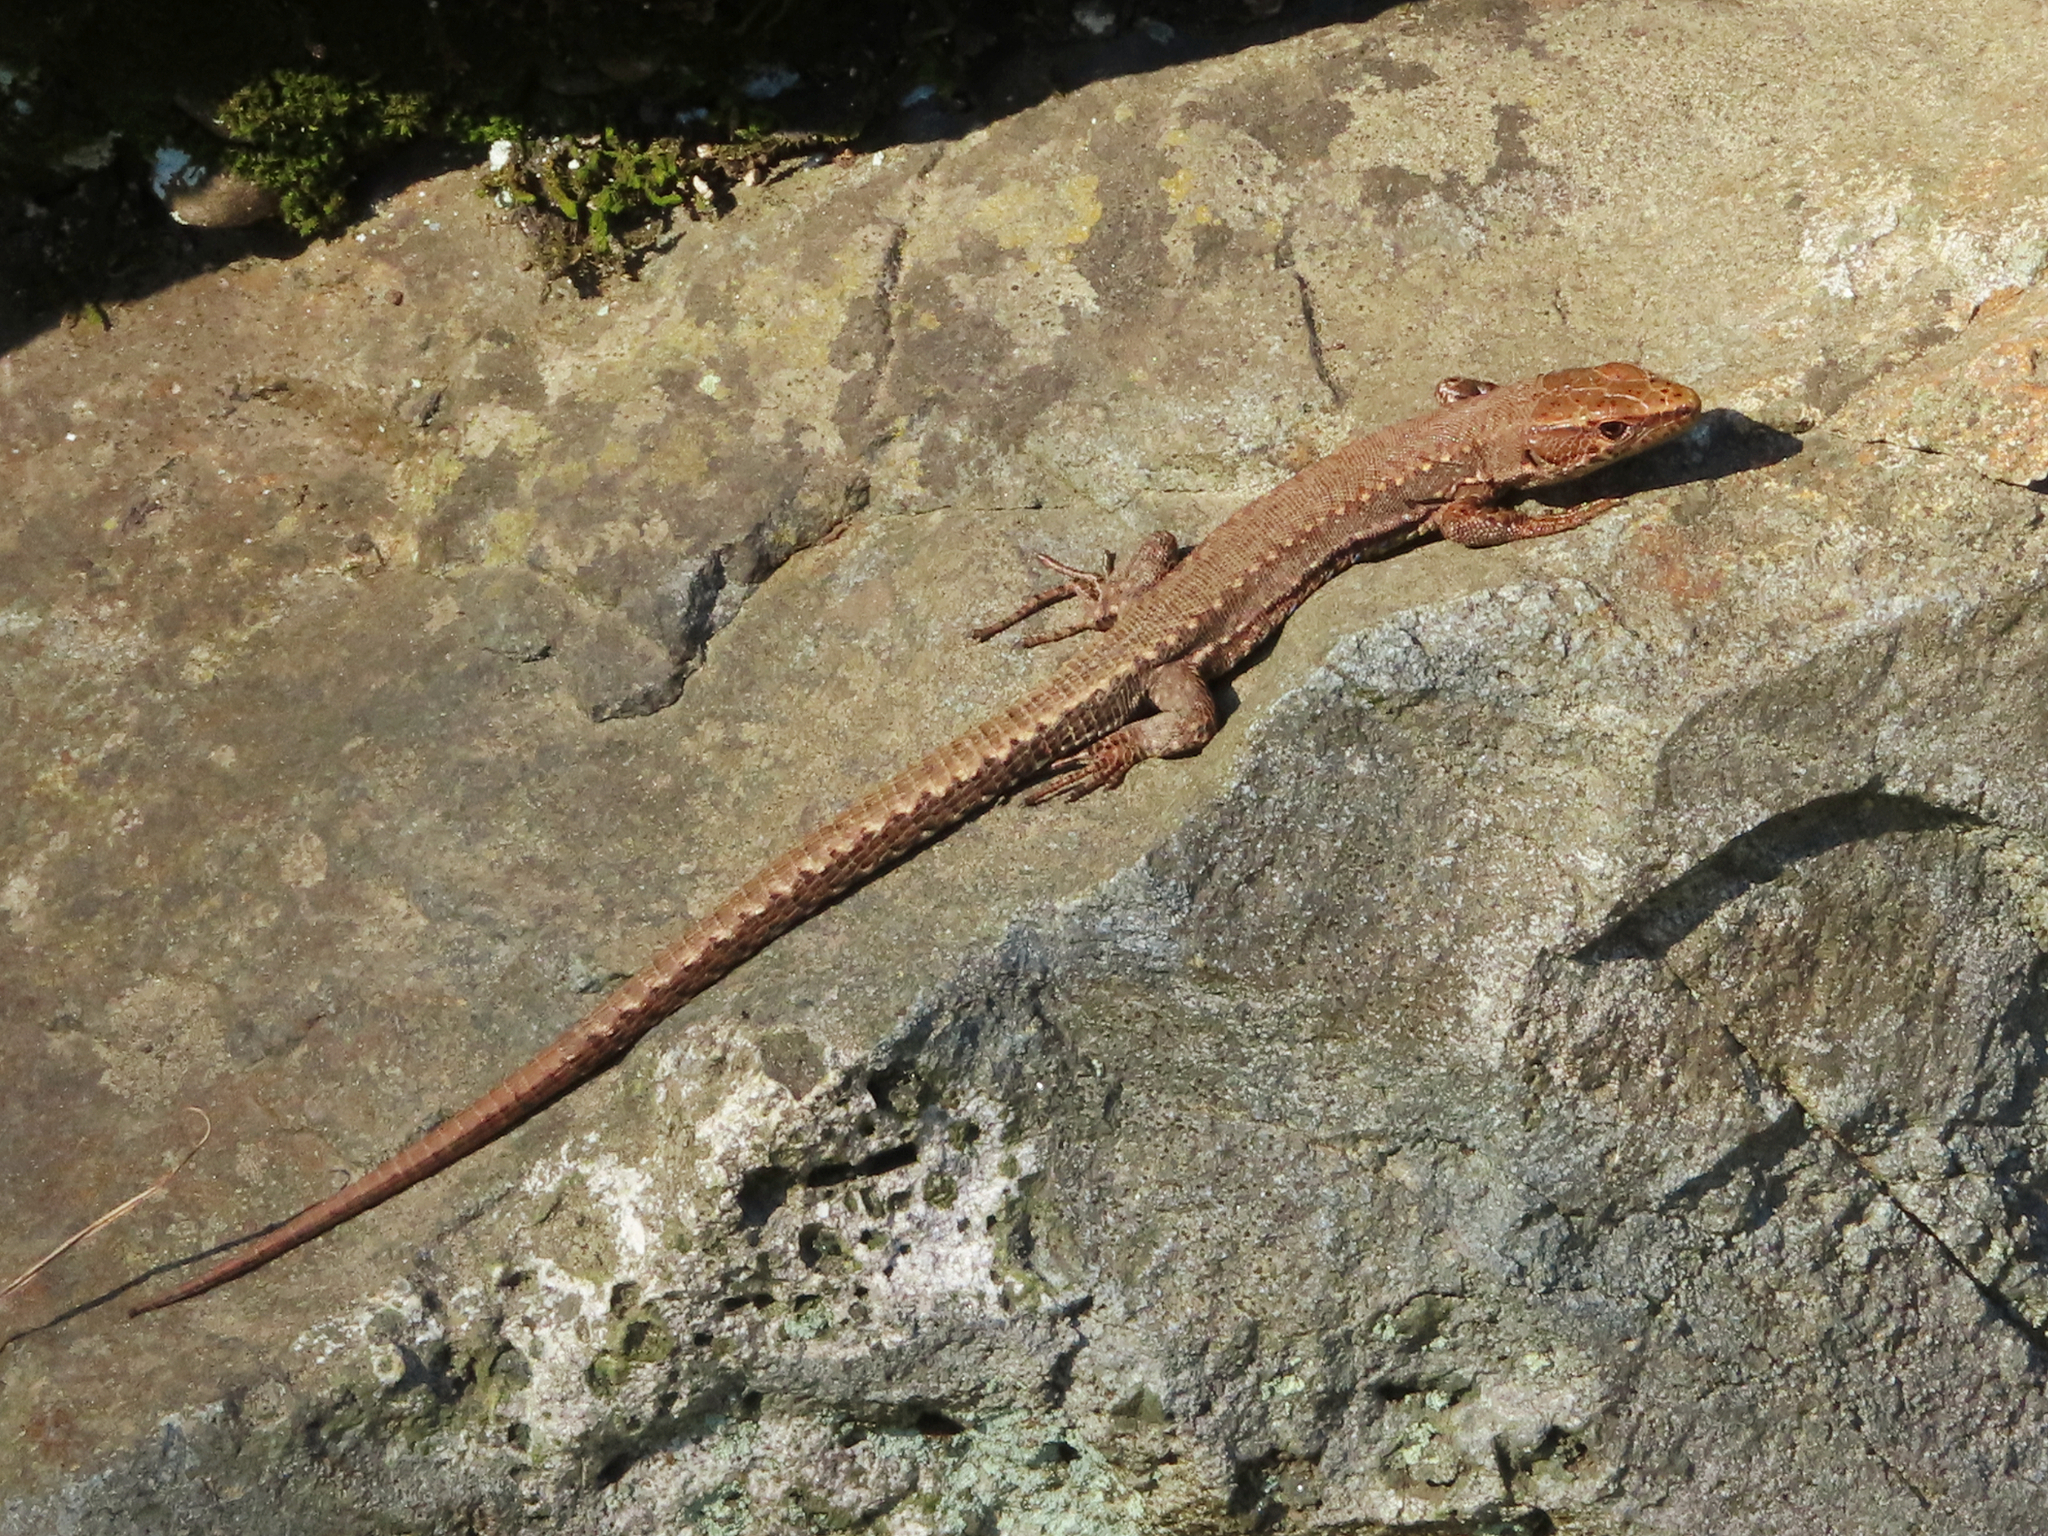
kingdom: Animalia
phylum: Chordata
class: Squamata
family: Lacertidae
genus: Darevskia
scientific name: Darevskia derjugini
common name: Derjugin's lizard
